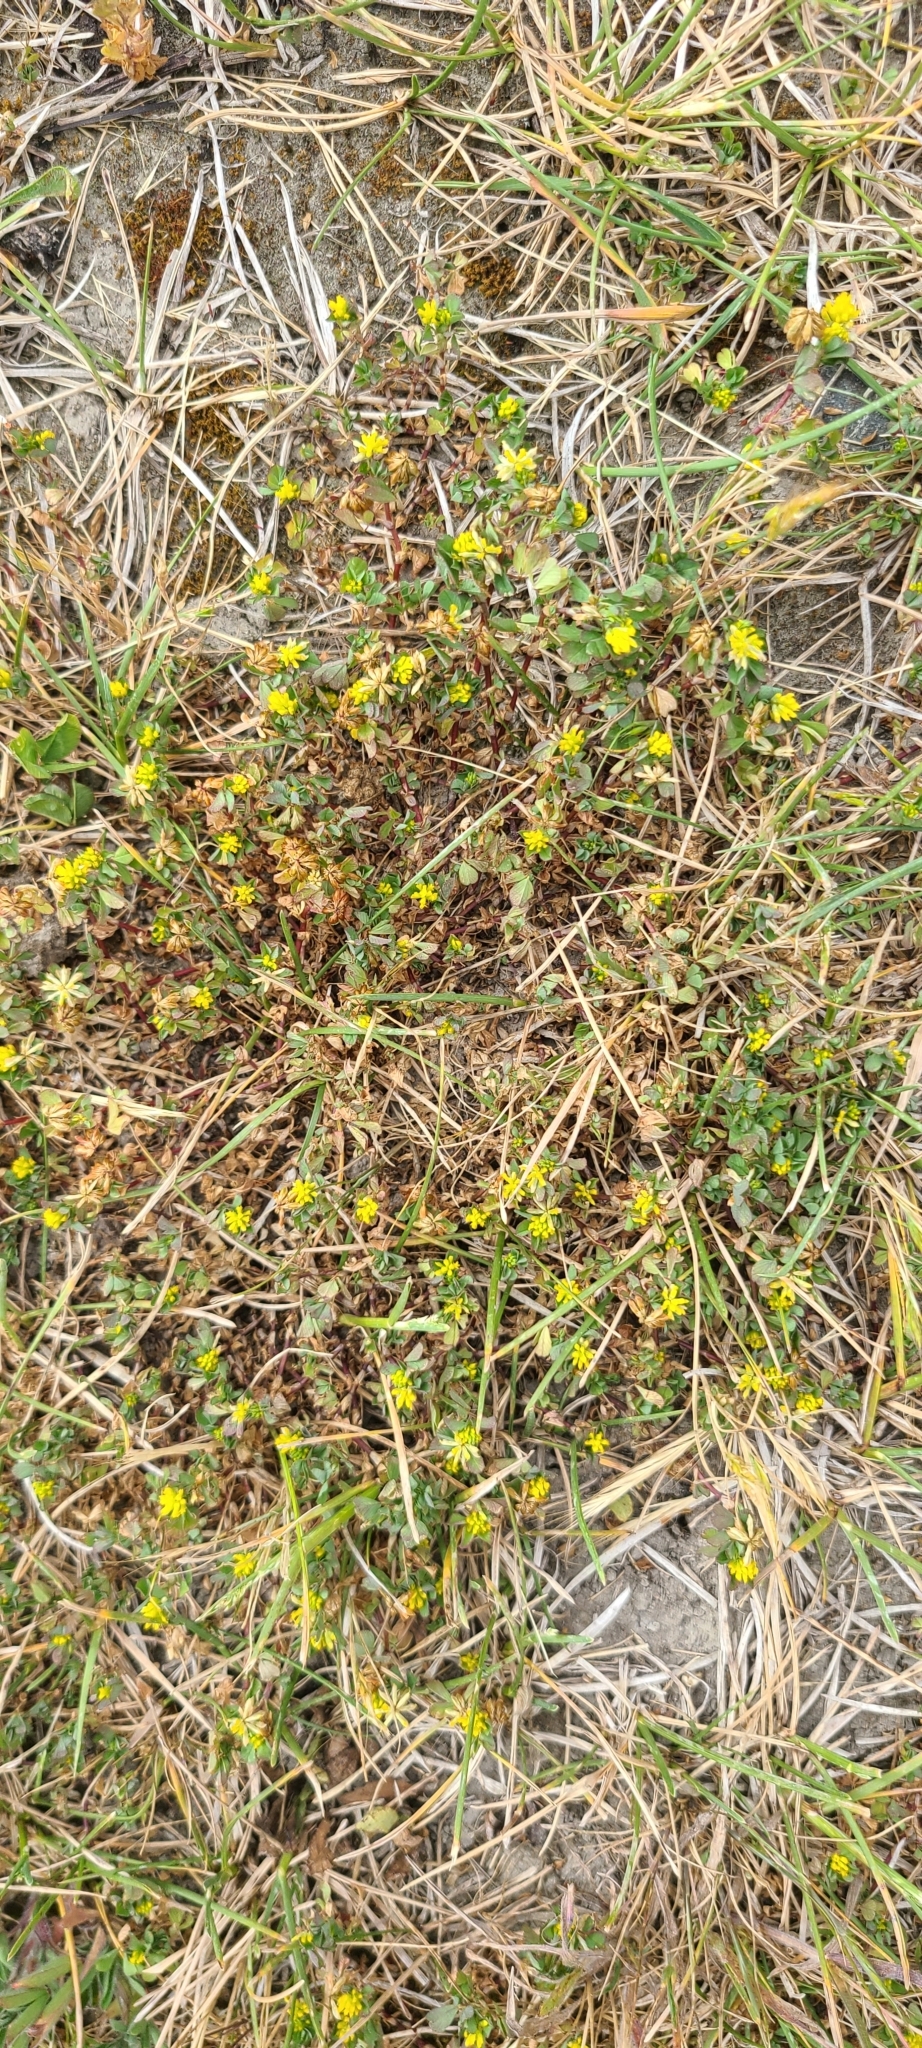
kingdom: Plantae
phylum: Tracheophyta
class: Magnoliopsida
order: Fabales
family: Fabaceae
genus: Trifolium
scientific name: Trifolium dubium
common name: Suckling clover
